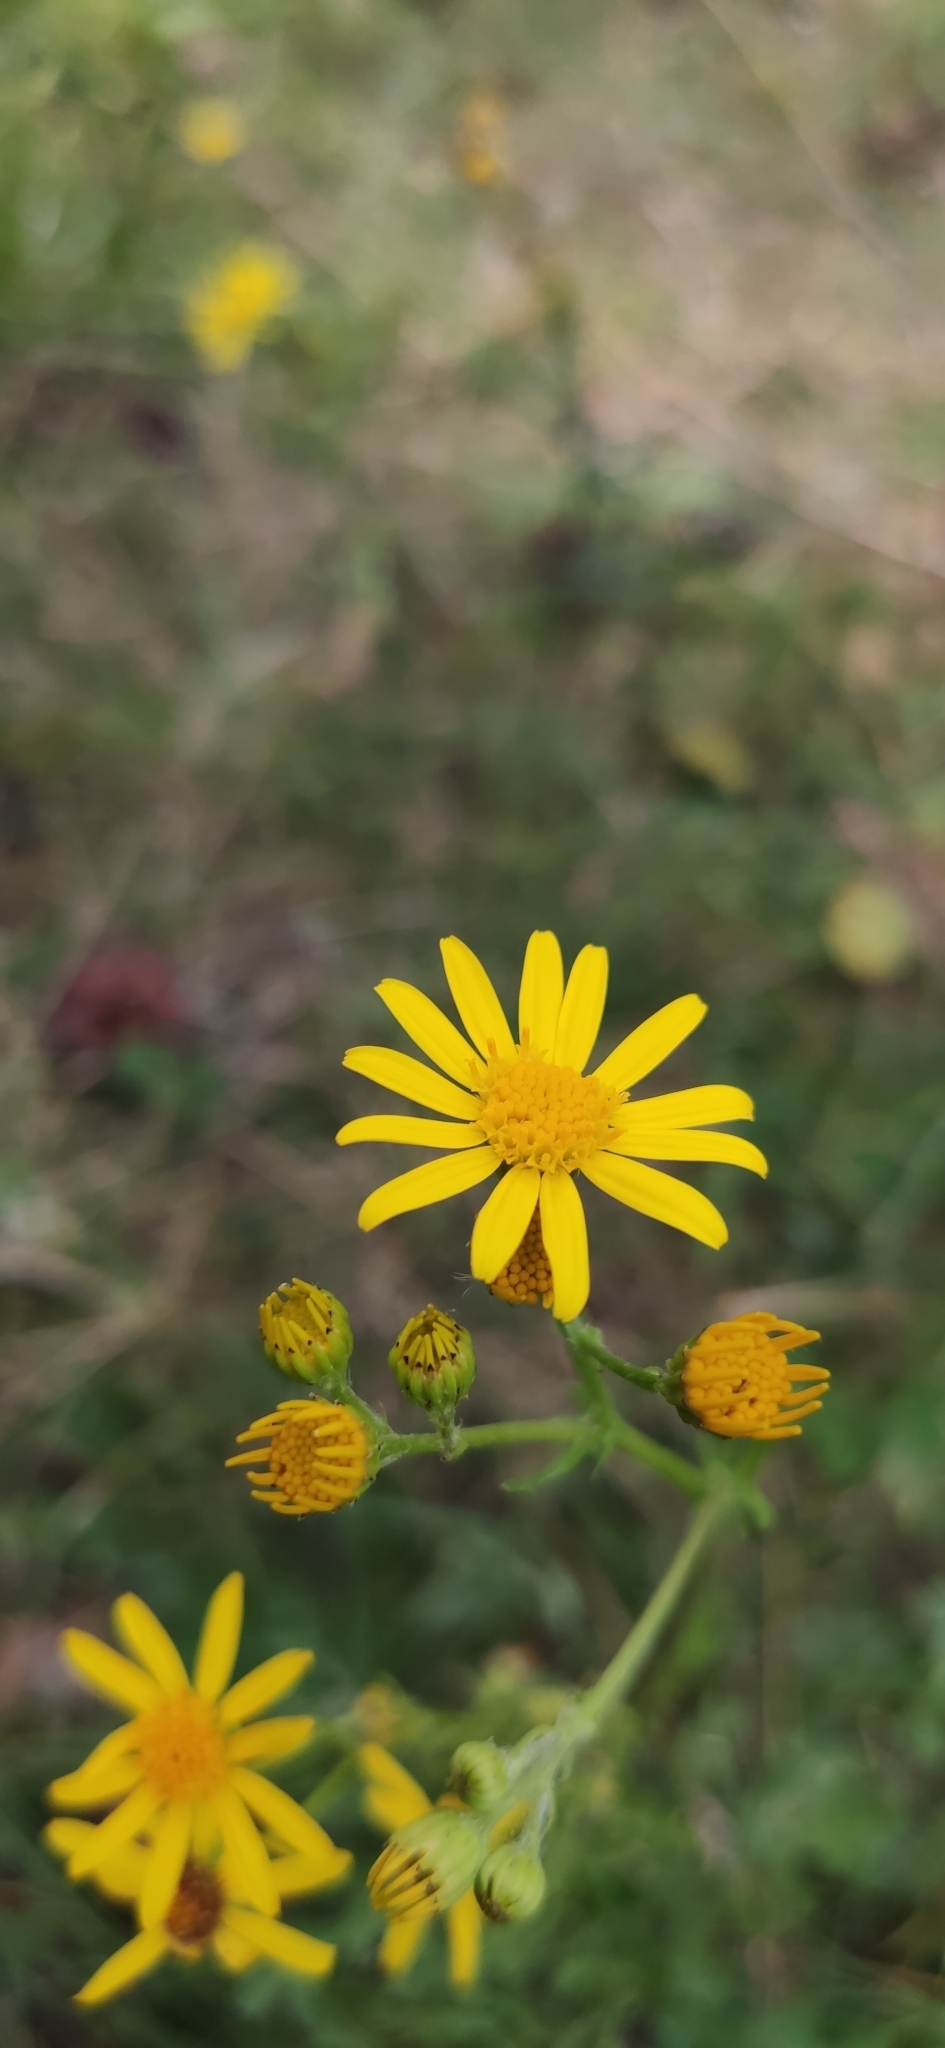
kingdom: Plantae
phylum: Tracheophyta
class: Magnoliopsida
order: Asterales
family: Asteraceae
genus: Jacobaea
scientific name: Jacobaea vulgaris
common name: Stinking willie
